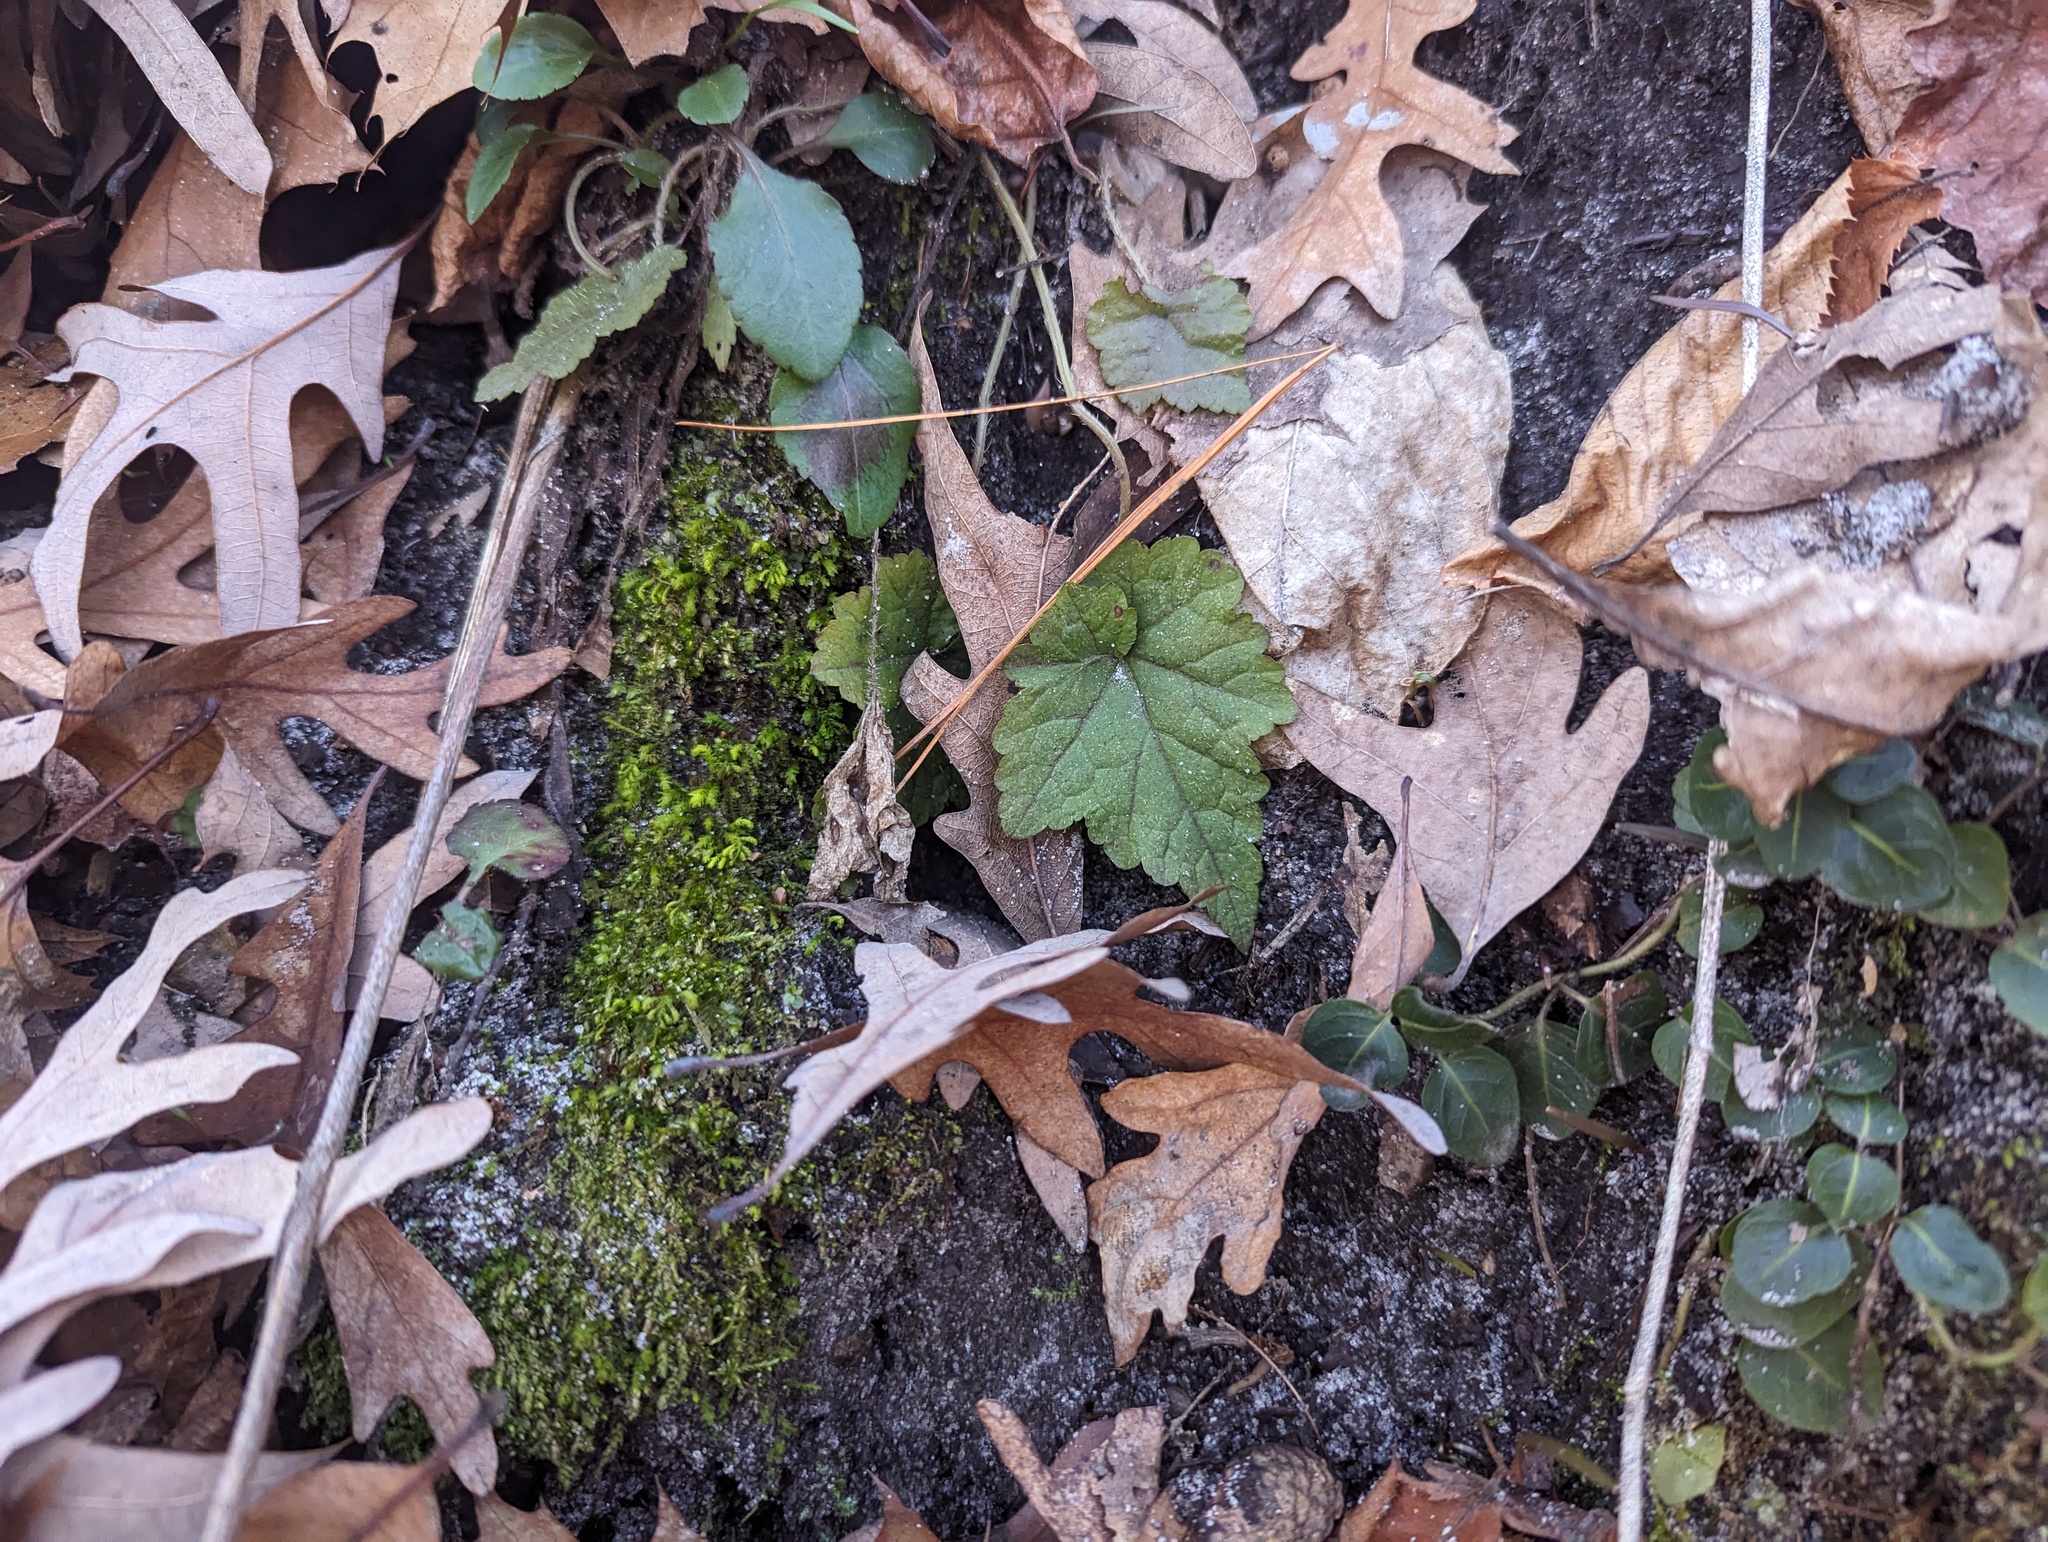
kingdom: Plantae
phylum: Tracheophyta
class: Magnoliopsida
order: Saxifragales
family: Saxifragaceae
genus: Mitella
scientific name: Mitella diphylla
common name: Coolwort
